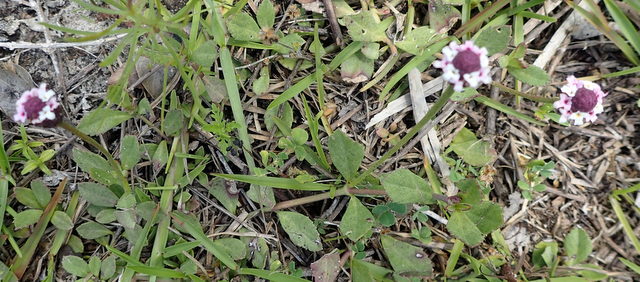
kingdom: Plantae
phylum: Tracheophyta
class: Magnoliopsida
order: Lamiales
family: Verbenaceae
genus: Phyla
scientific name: Phyla nodiflora
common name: Frogfruit
